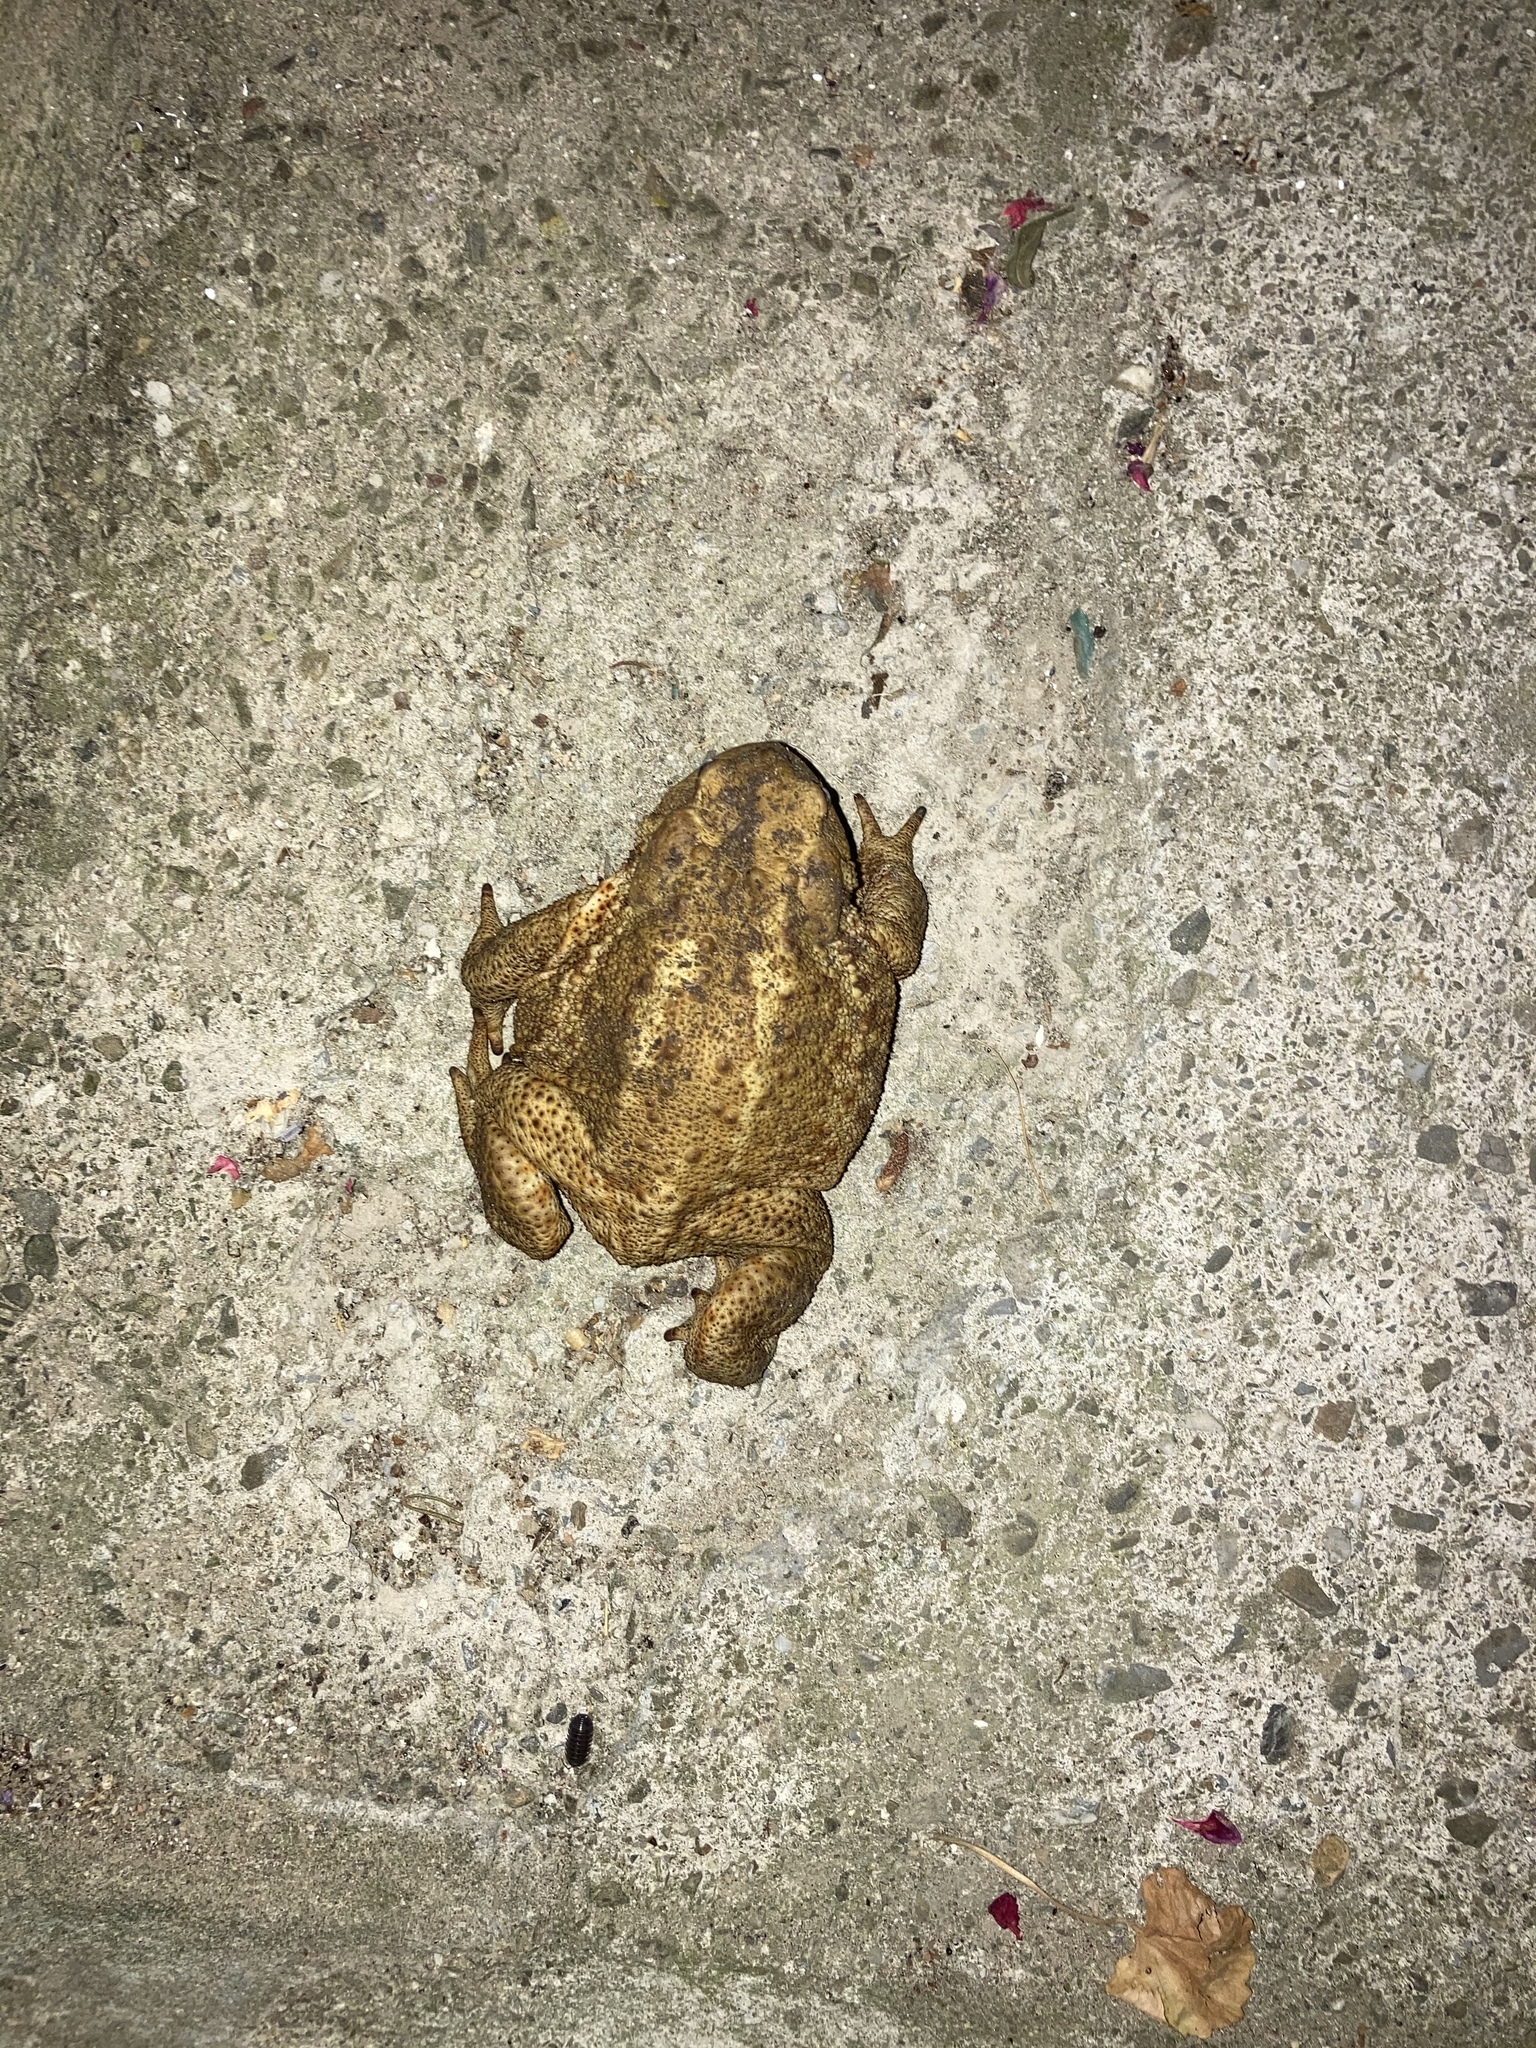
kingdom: Animalia
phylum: Chordata
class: Amphibia
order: Anura
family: Bufonidae
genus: Bufo
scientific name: Bufo bufo
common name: Common toad
